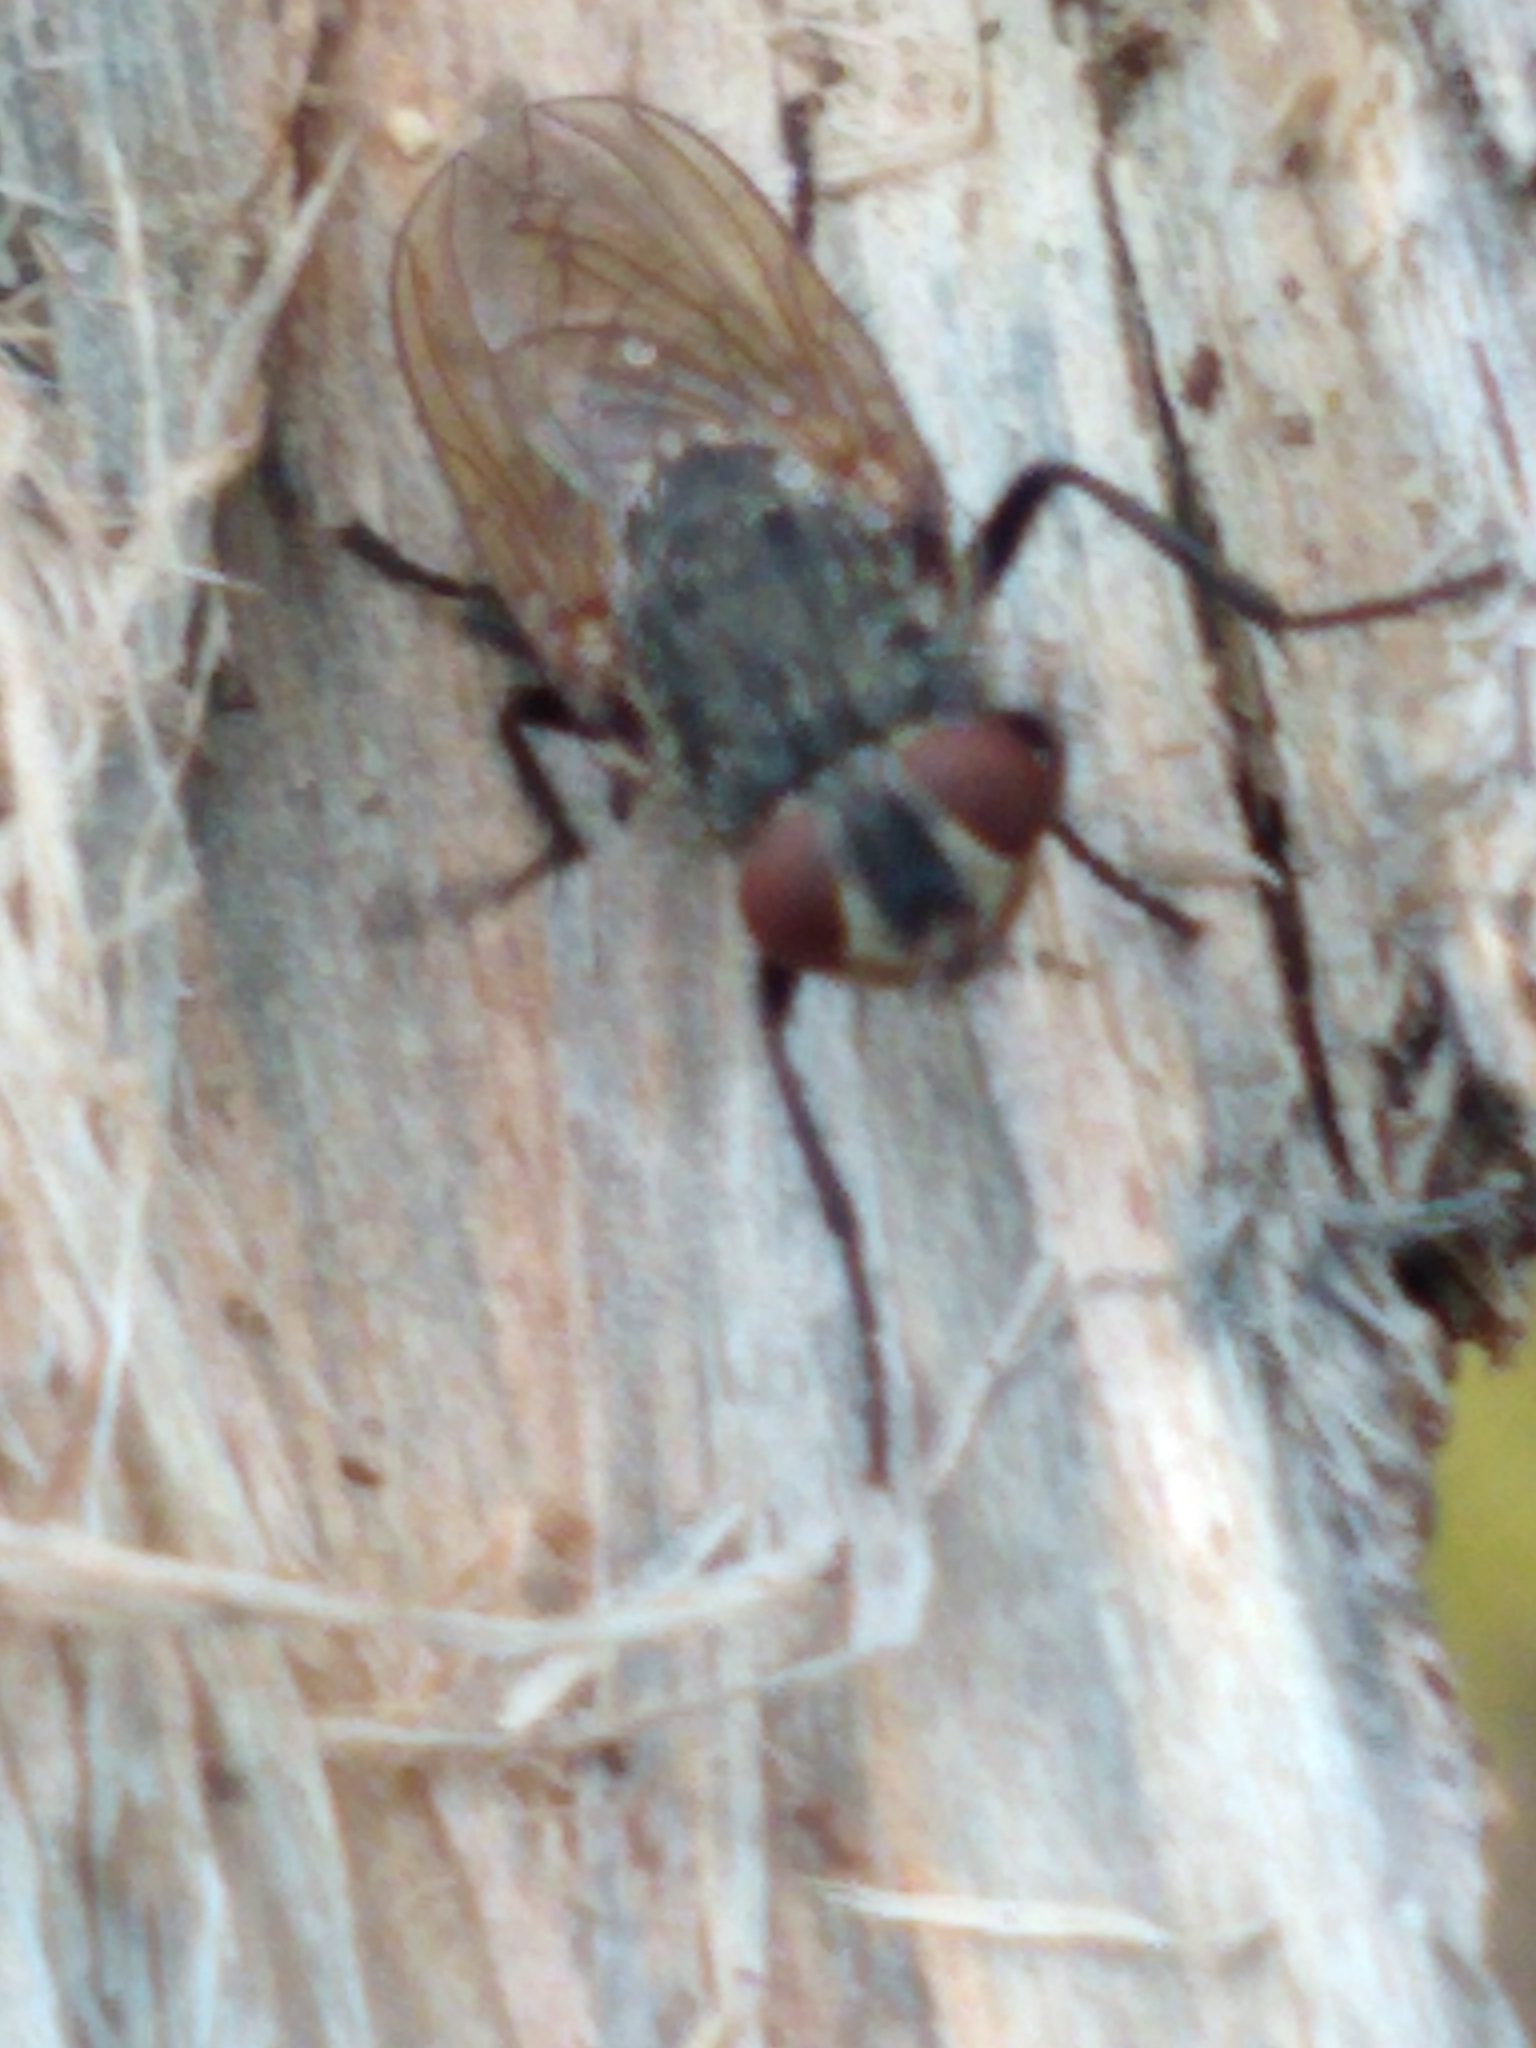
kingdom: Animalia
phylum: Arthropoda
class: Insecta
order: Diptera
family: Polleniidae
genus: Pollenia
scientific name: Pollenia
